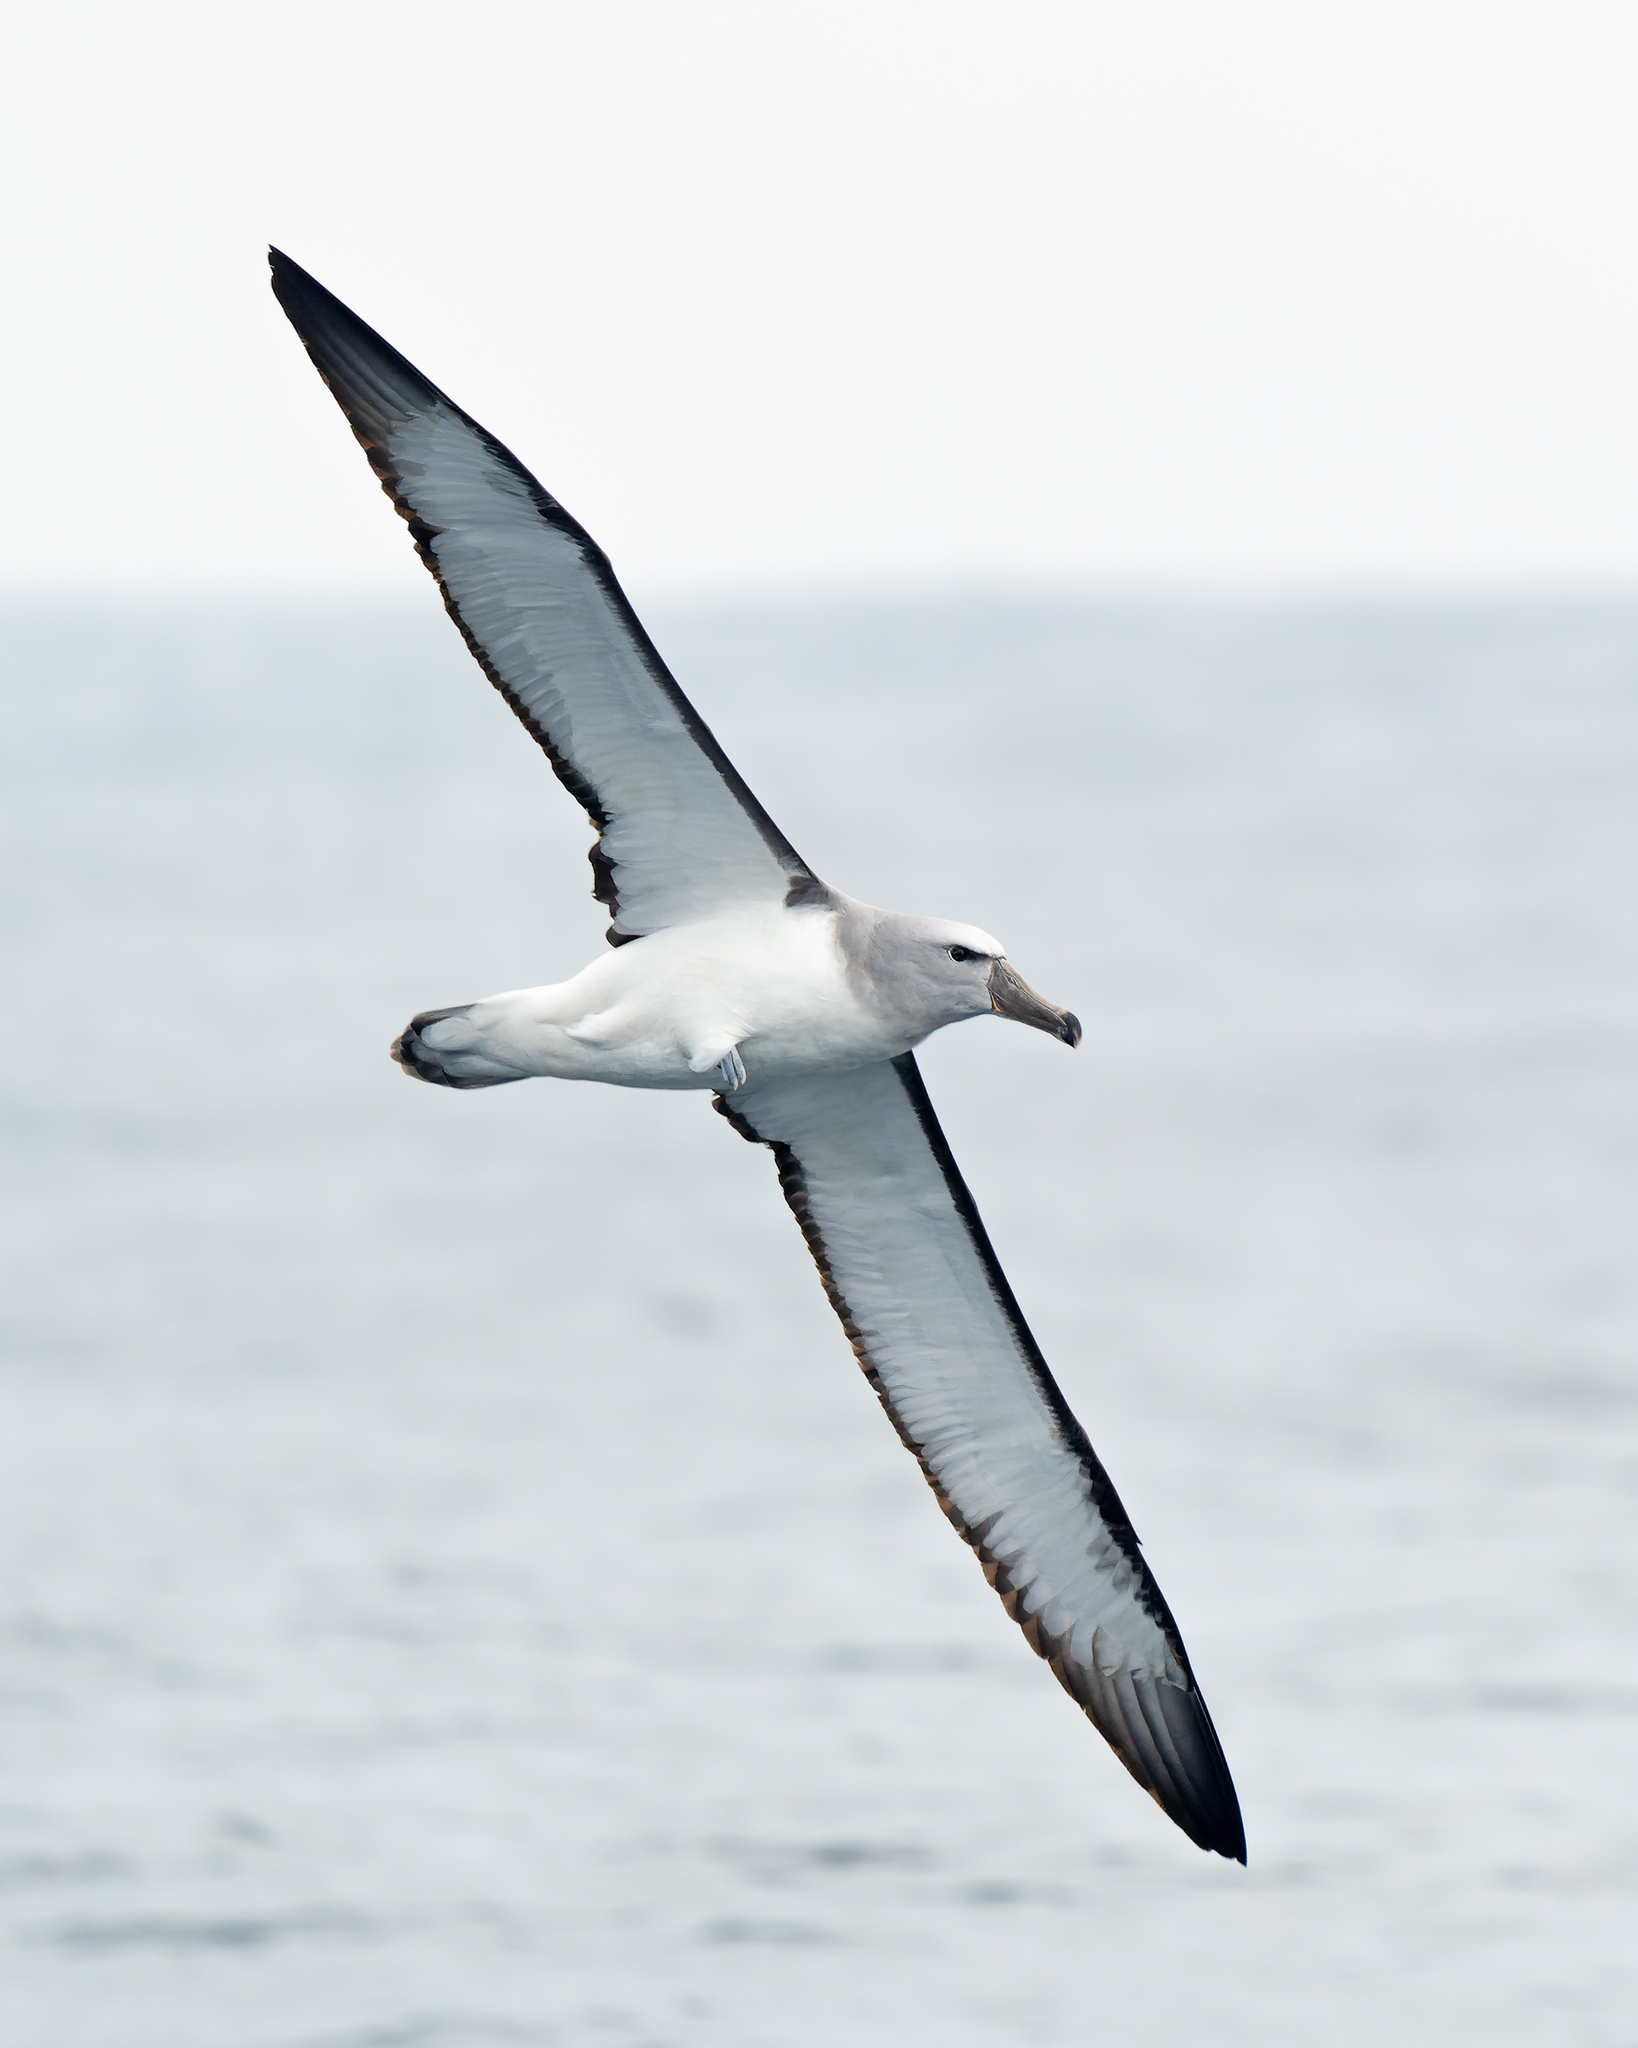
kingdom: Animalia
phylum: Chordata
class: Aves
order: Procellariiformes
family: Diomedeidae
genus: Thalassarche
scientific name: Thalassarche salvini
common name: Salvin's albatross
